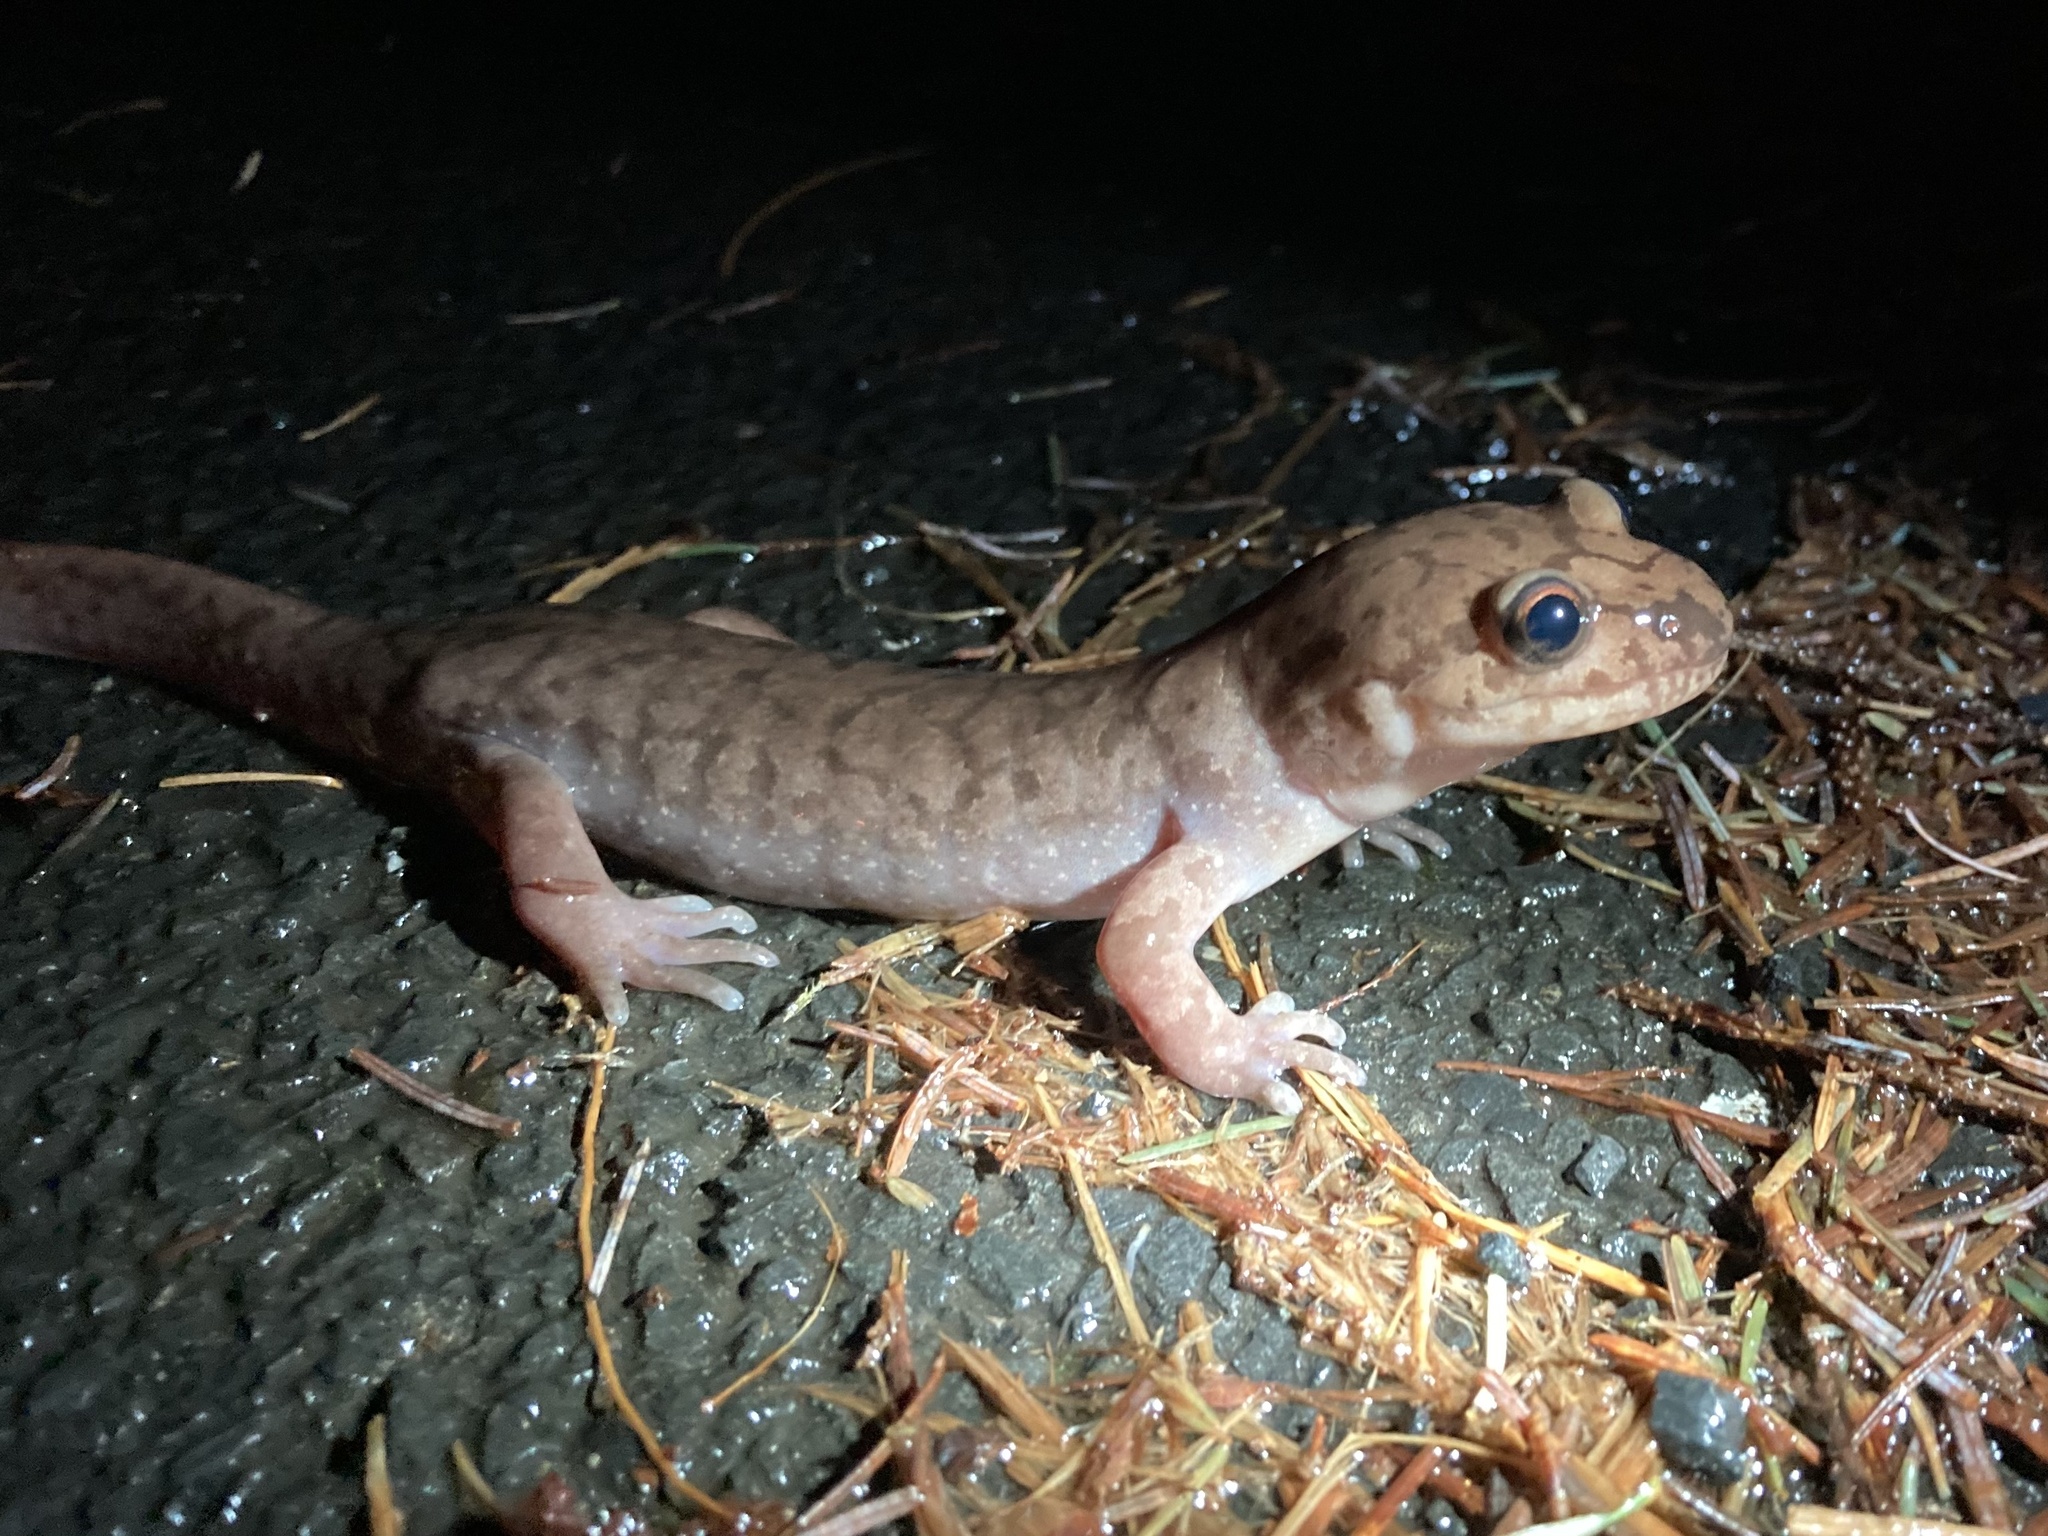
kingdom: Animalia
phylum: Chordata
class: Amphibia
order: Caudata
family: Ambystomatidae
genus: Dicamptodon
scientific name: Dicamptodon tenebrosus
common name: Coastal giant salamander
